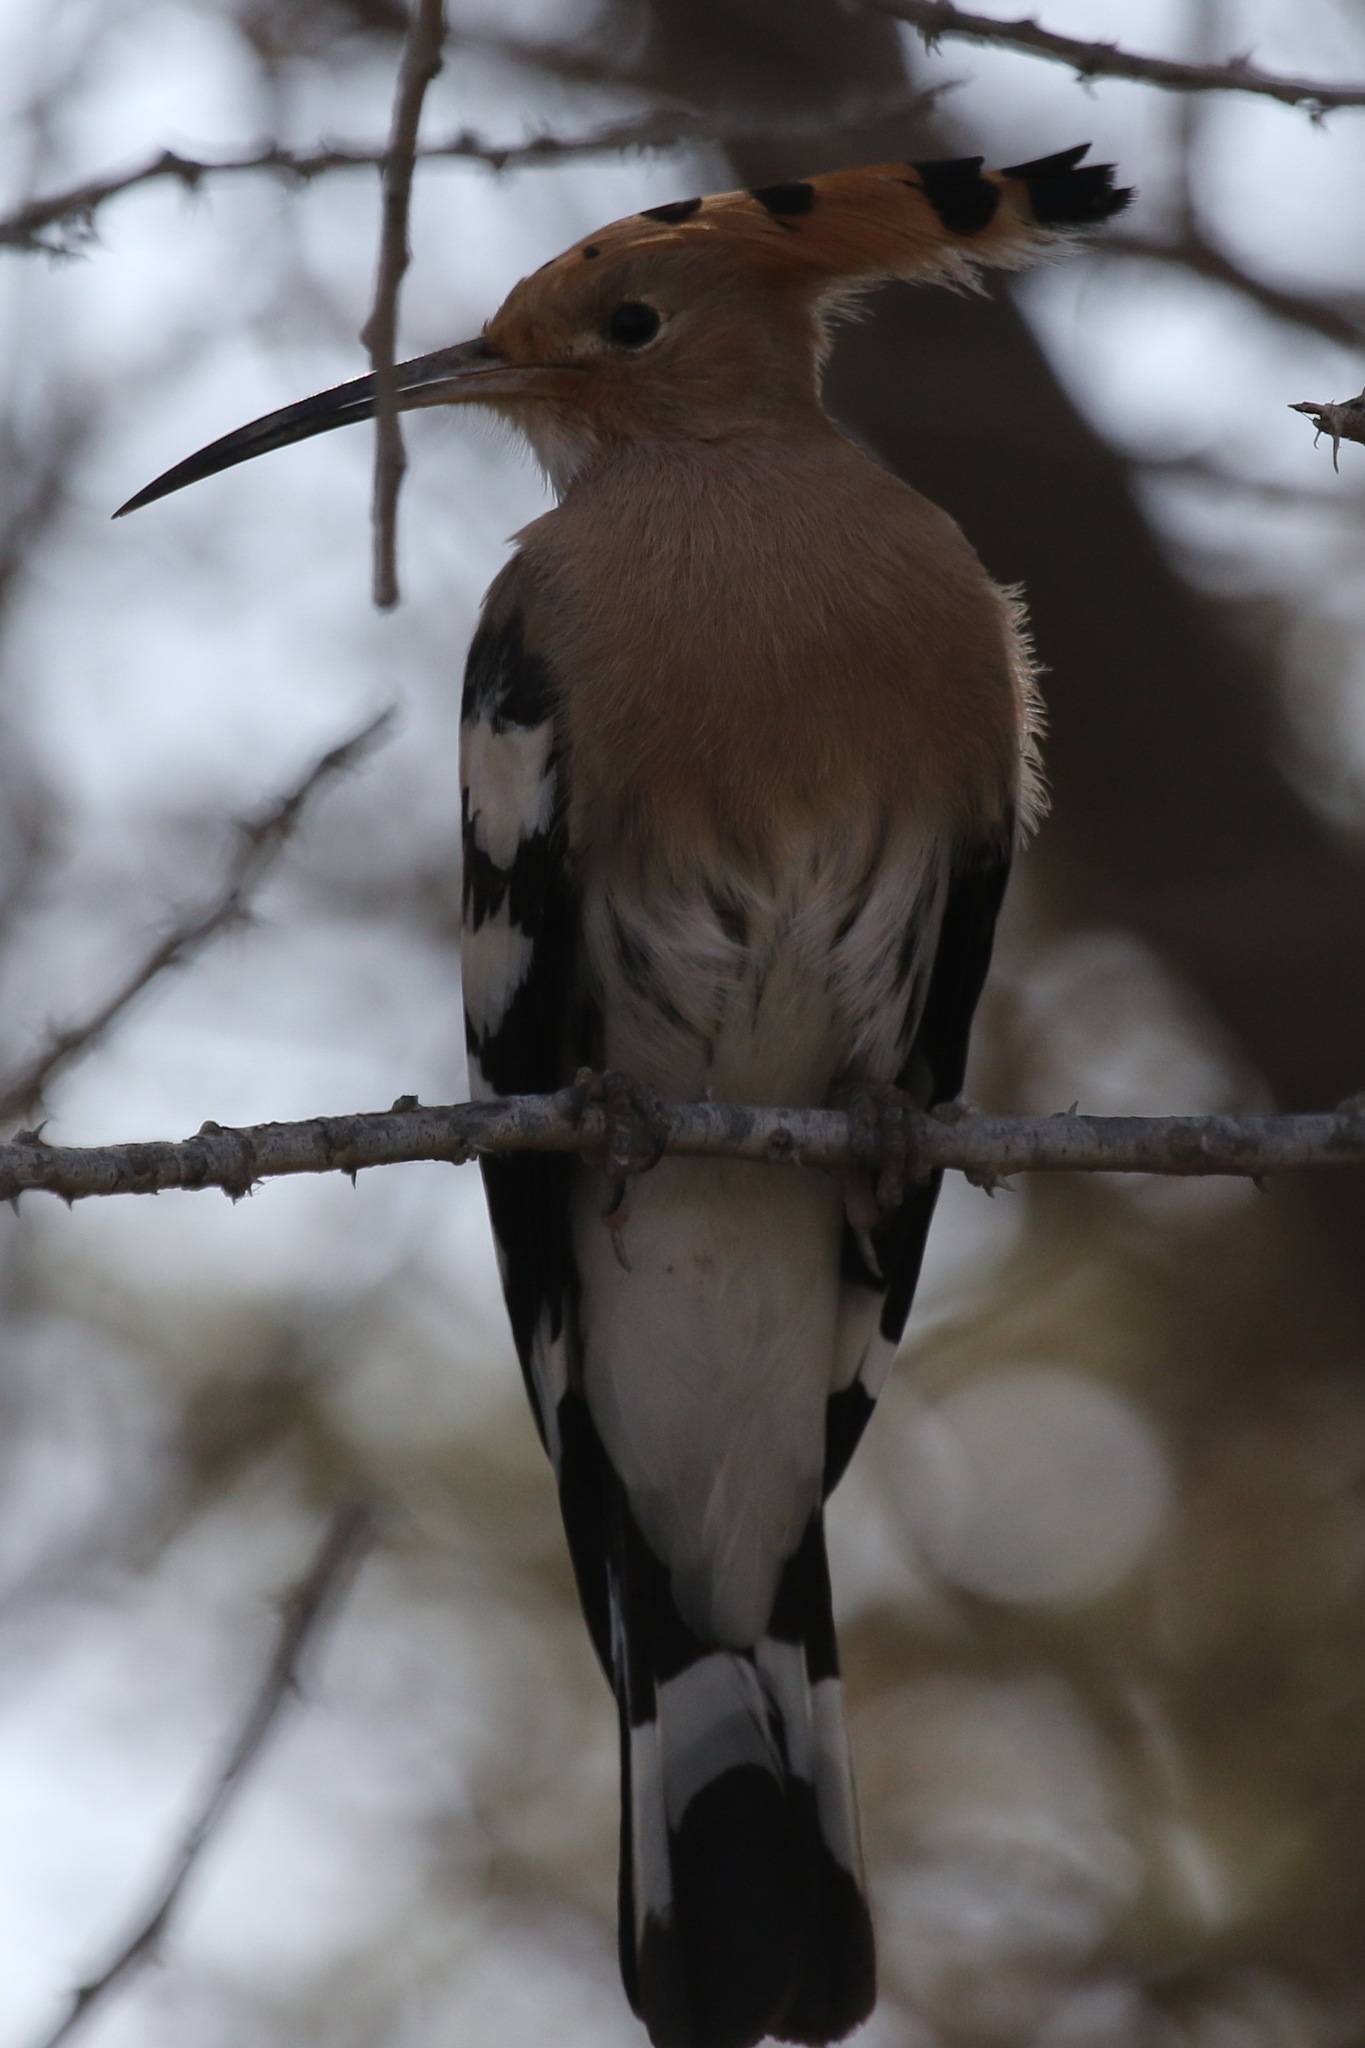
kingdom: Animalia
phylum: Chordata
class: Aves
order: Bucerotiformes
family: Upupidae
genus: Upupa
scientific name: Upupa epops
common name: Eurasian hoopoe
